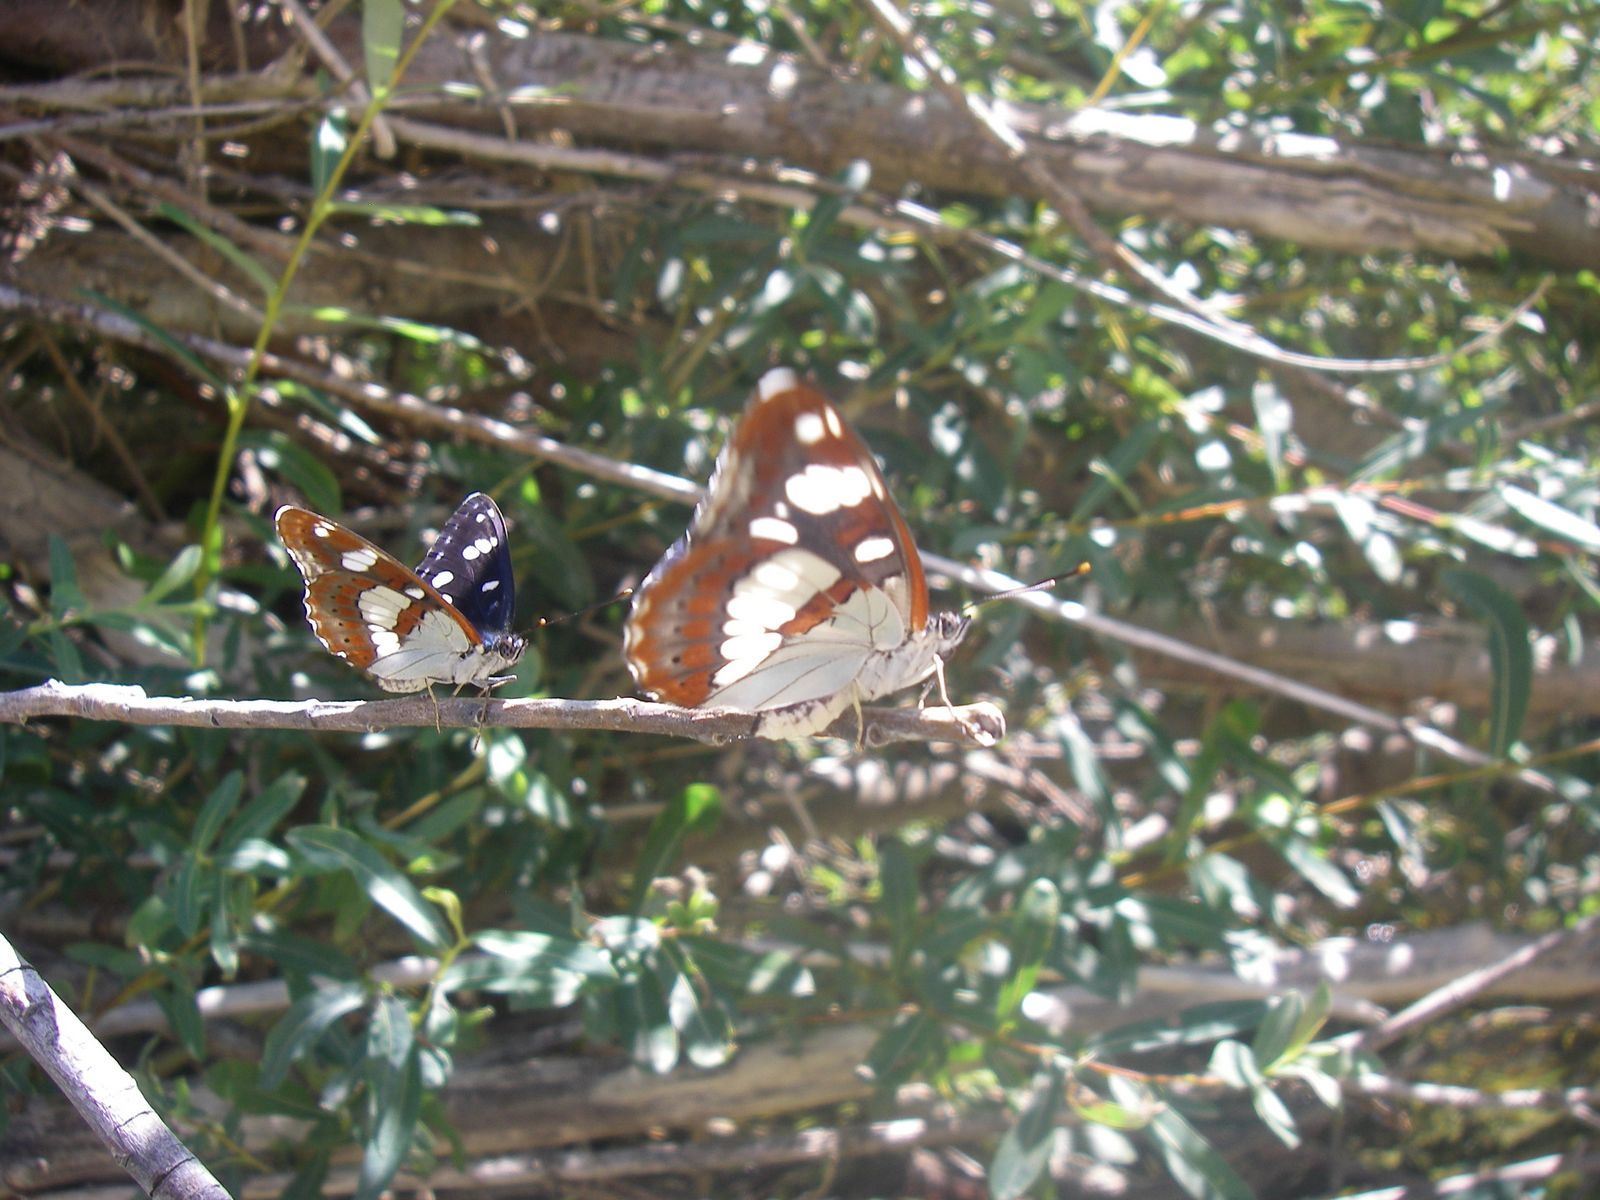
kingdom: Animalia
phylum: Arthropoda
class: Insecta
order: Lepidoptera
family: Nymphalidae
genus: Limenitis
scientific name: Limenitis reducta
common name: Southern white admiral
